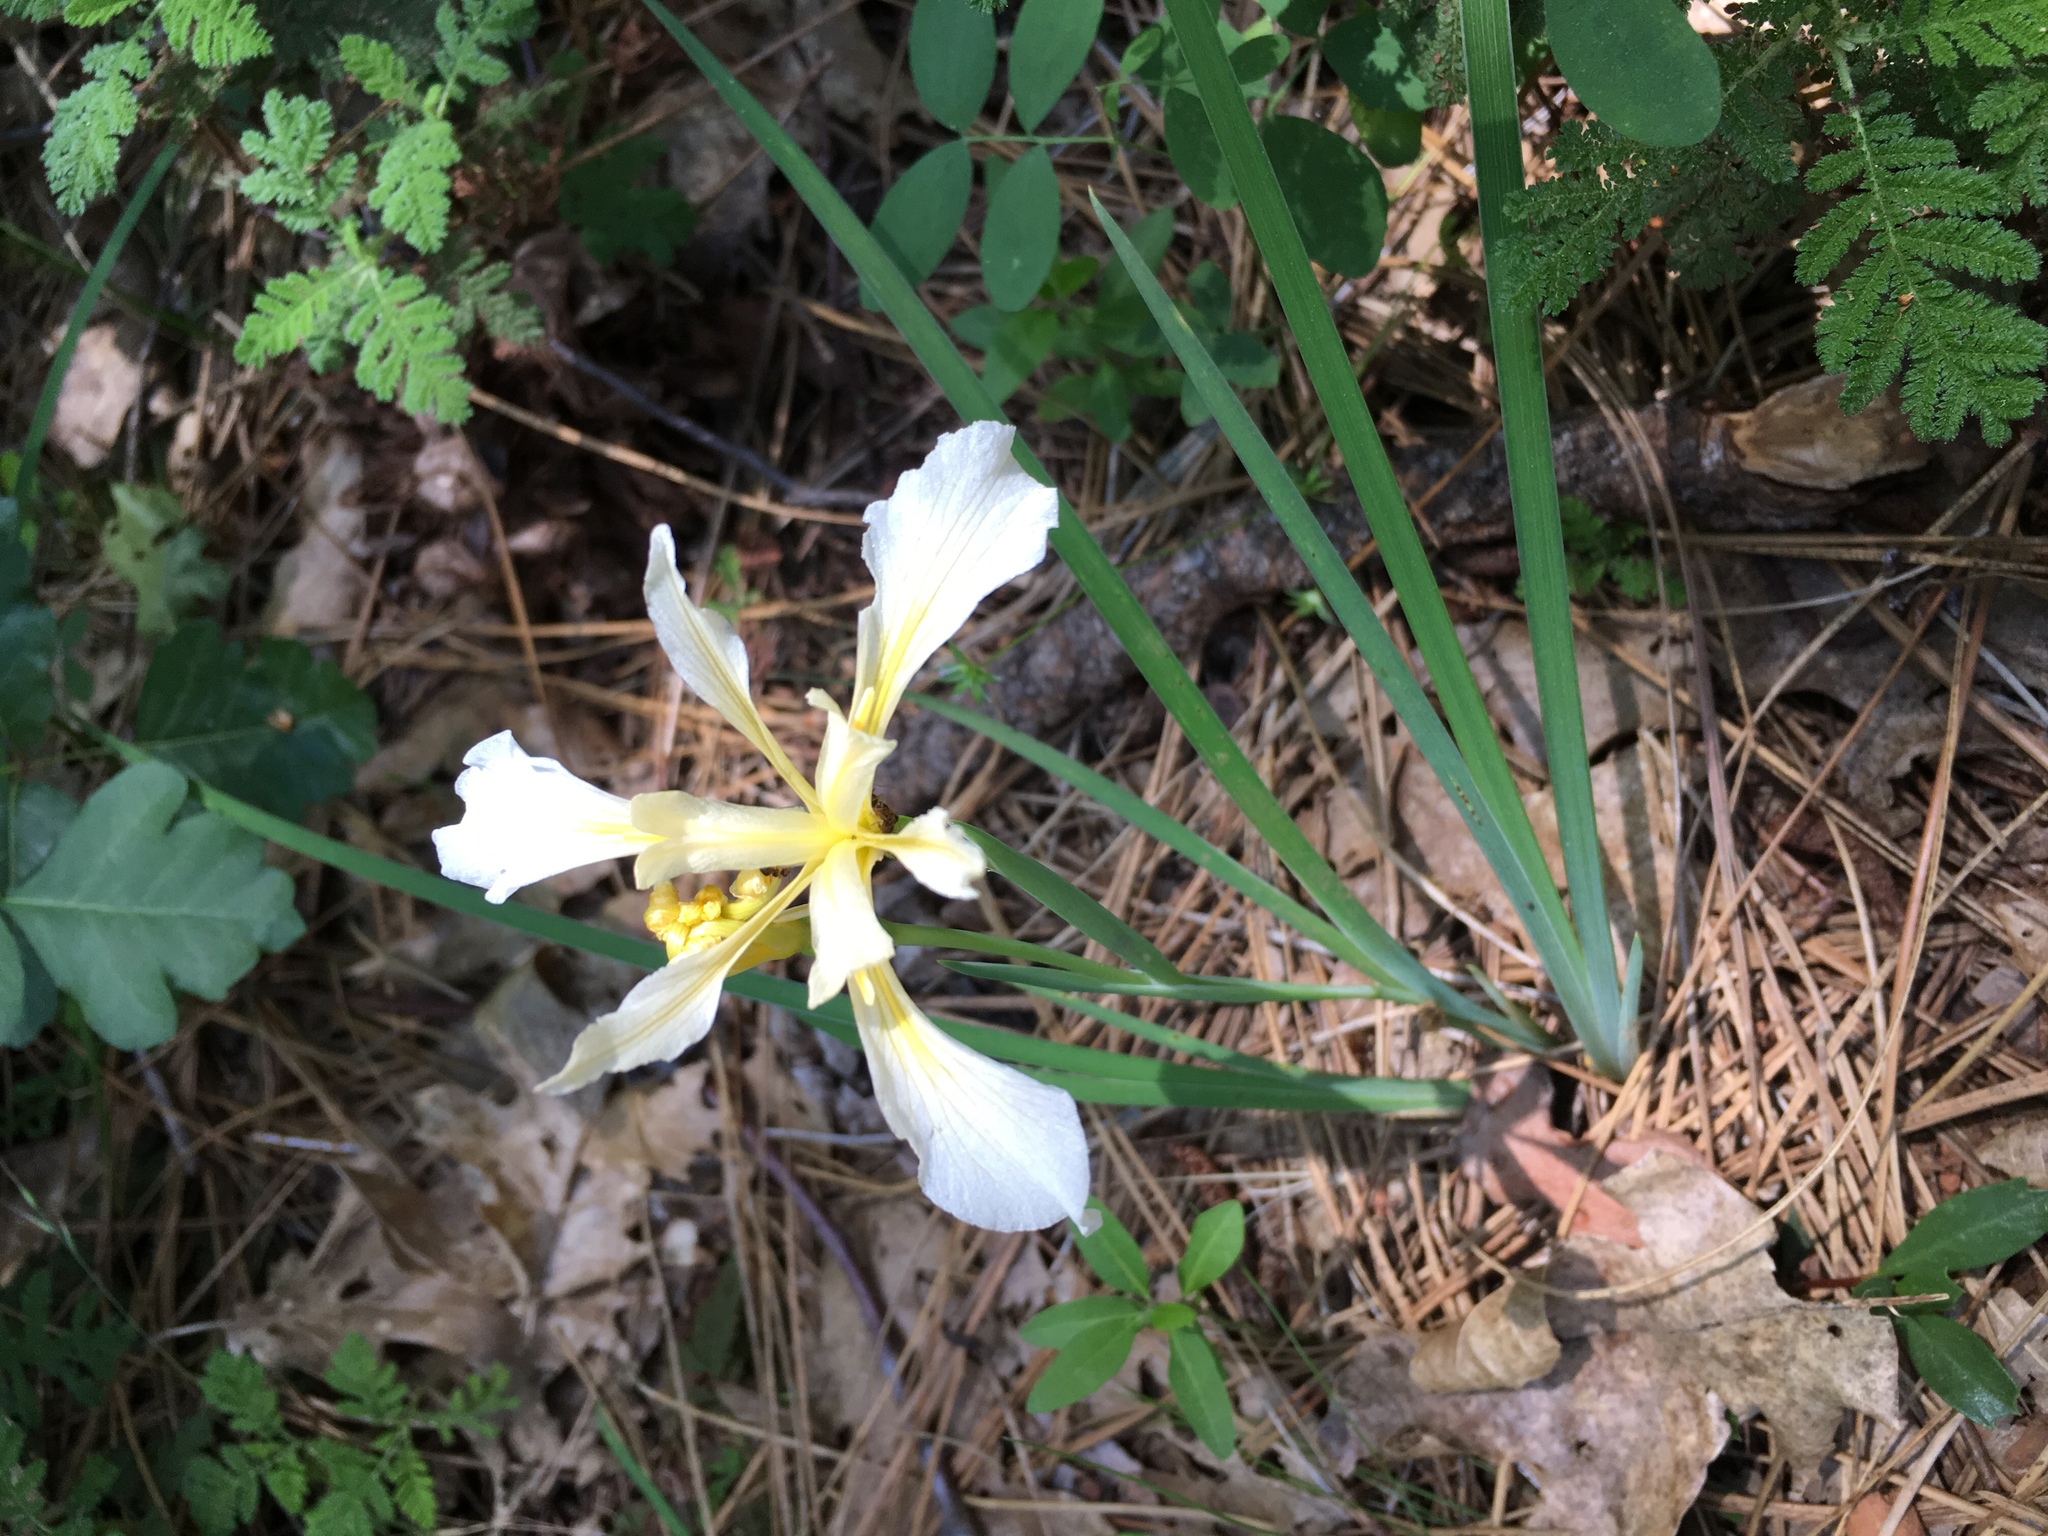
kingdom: Plantae
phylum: Tracheophyta
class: Liliopsida
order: Asparagales
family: Iridaceae
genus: Iris
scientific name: Iris hartwegii
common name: Sierra iris
